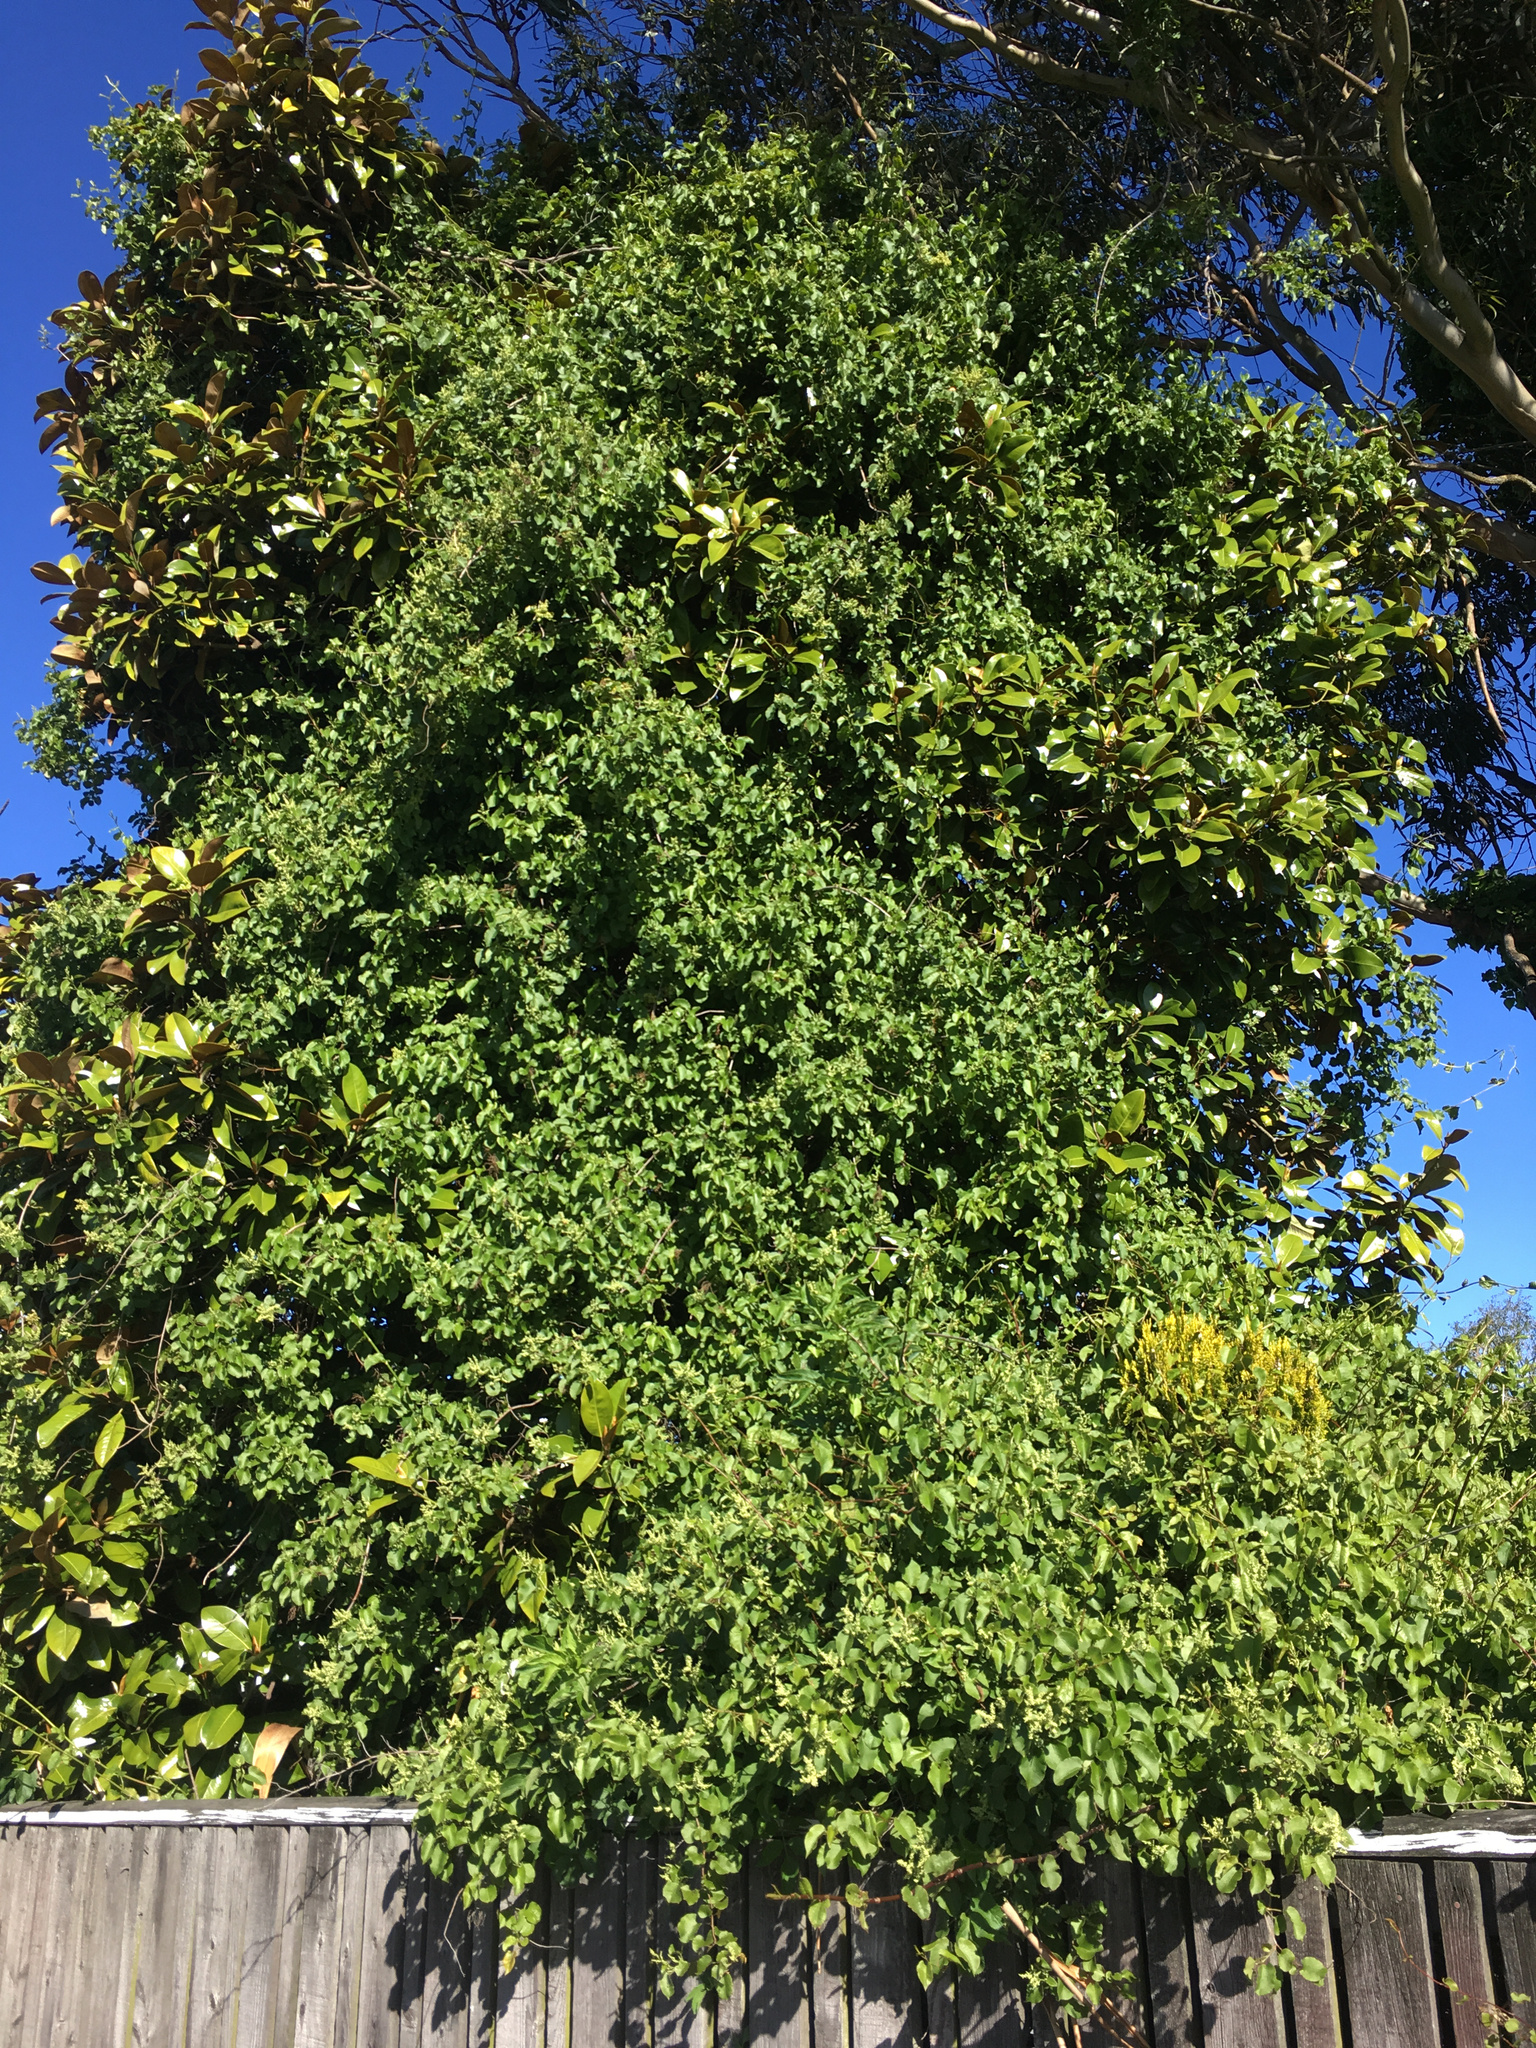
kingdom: Plantae
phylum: Tracheophyta
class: Magnoliopsida
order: Caryophyllales
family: Polygonaceae
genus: Muehlenbeckia
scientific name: Muehlenbeckia australis
